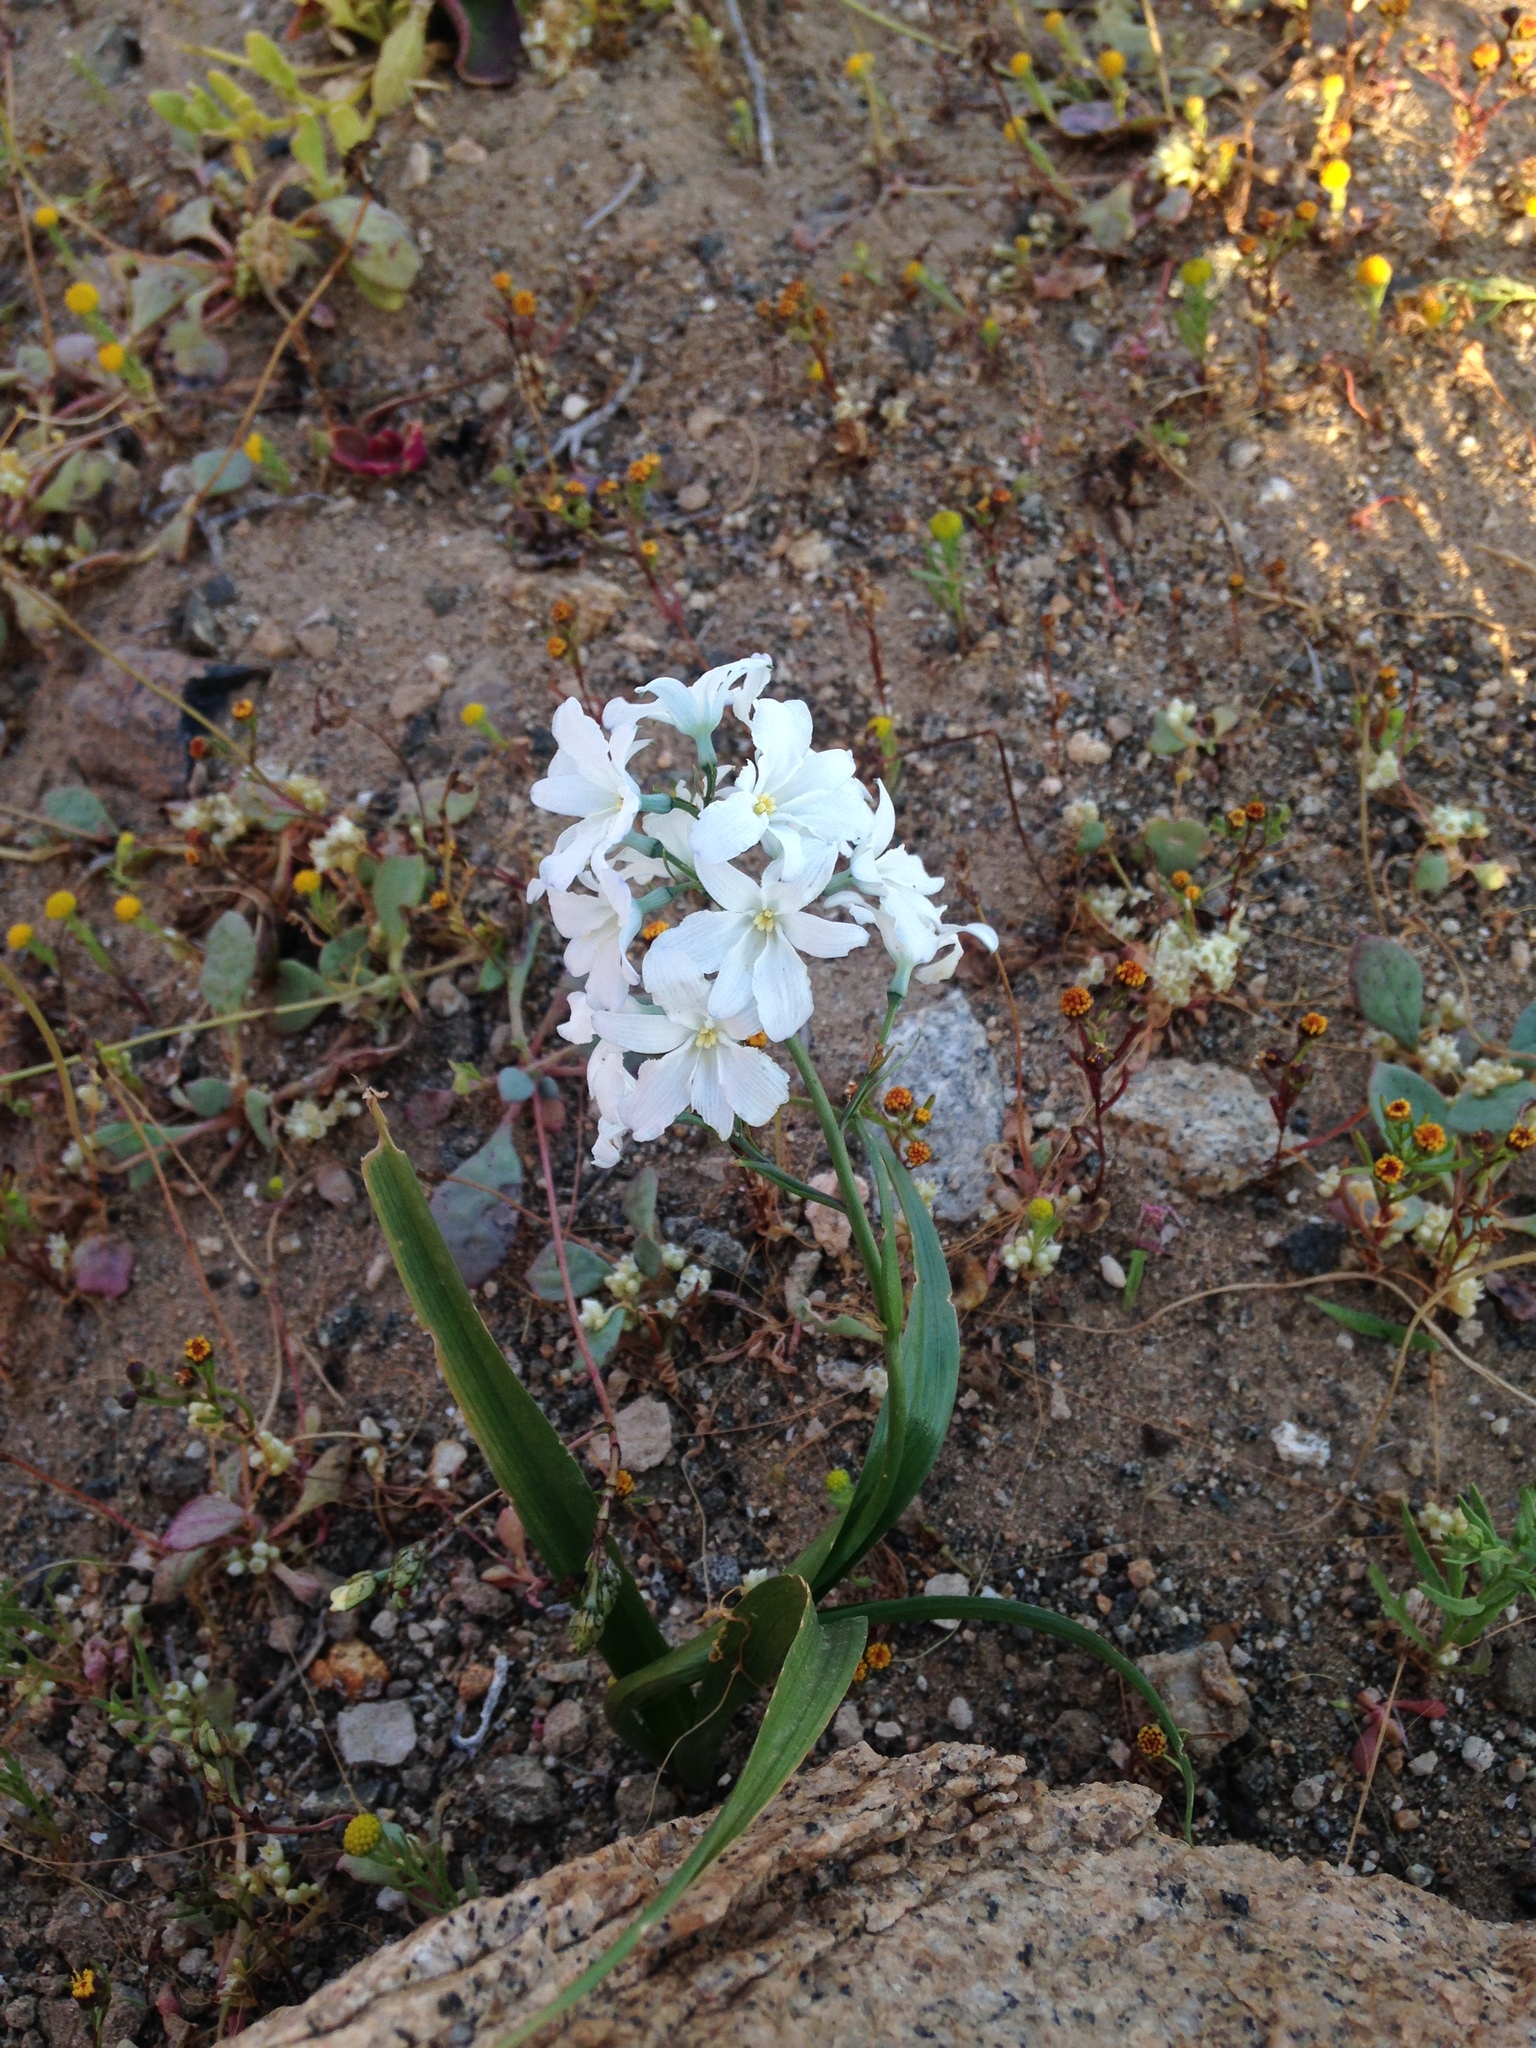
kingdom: Plantae
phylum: Tracheophyta
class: Liliopsida
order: Asparagales
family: Tecophilaeaceae
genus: Zephyra
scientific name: Zephyra elegans
